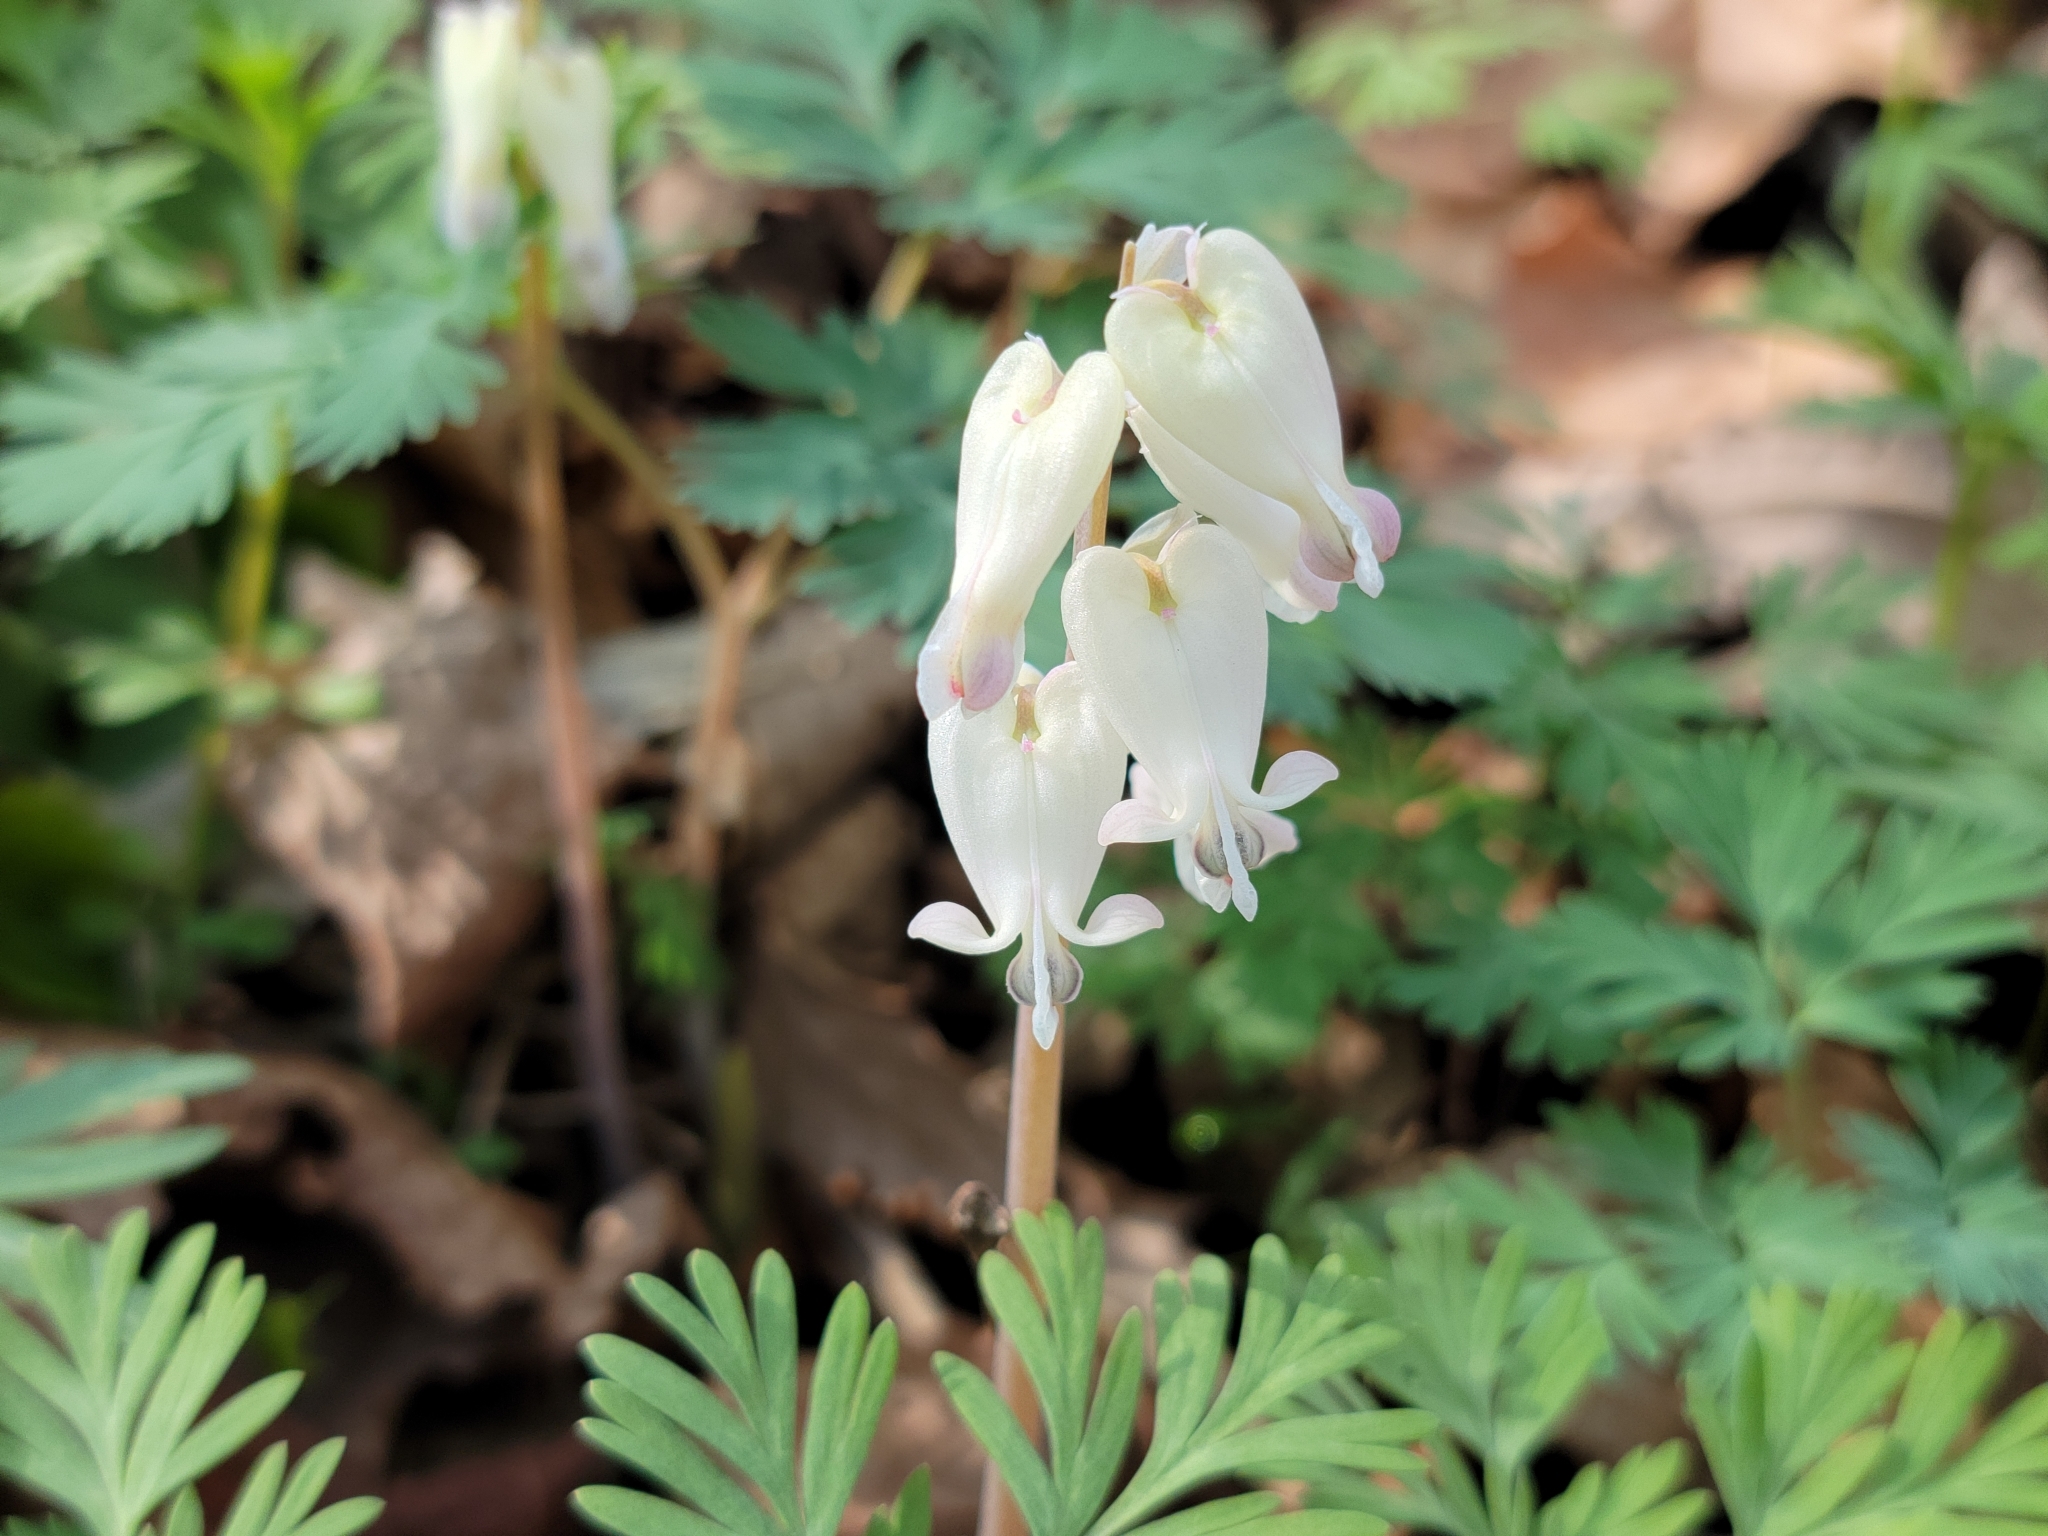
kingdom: Plantae
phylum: Tracheophyta
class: Magnoliopsida
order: Ranunculales
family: Papaveraceae
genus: Dicentra
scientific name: Dicentra canadensis
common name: Squirrel-corn
